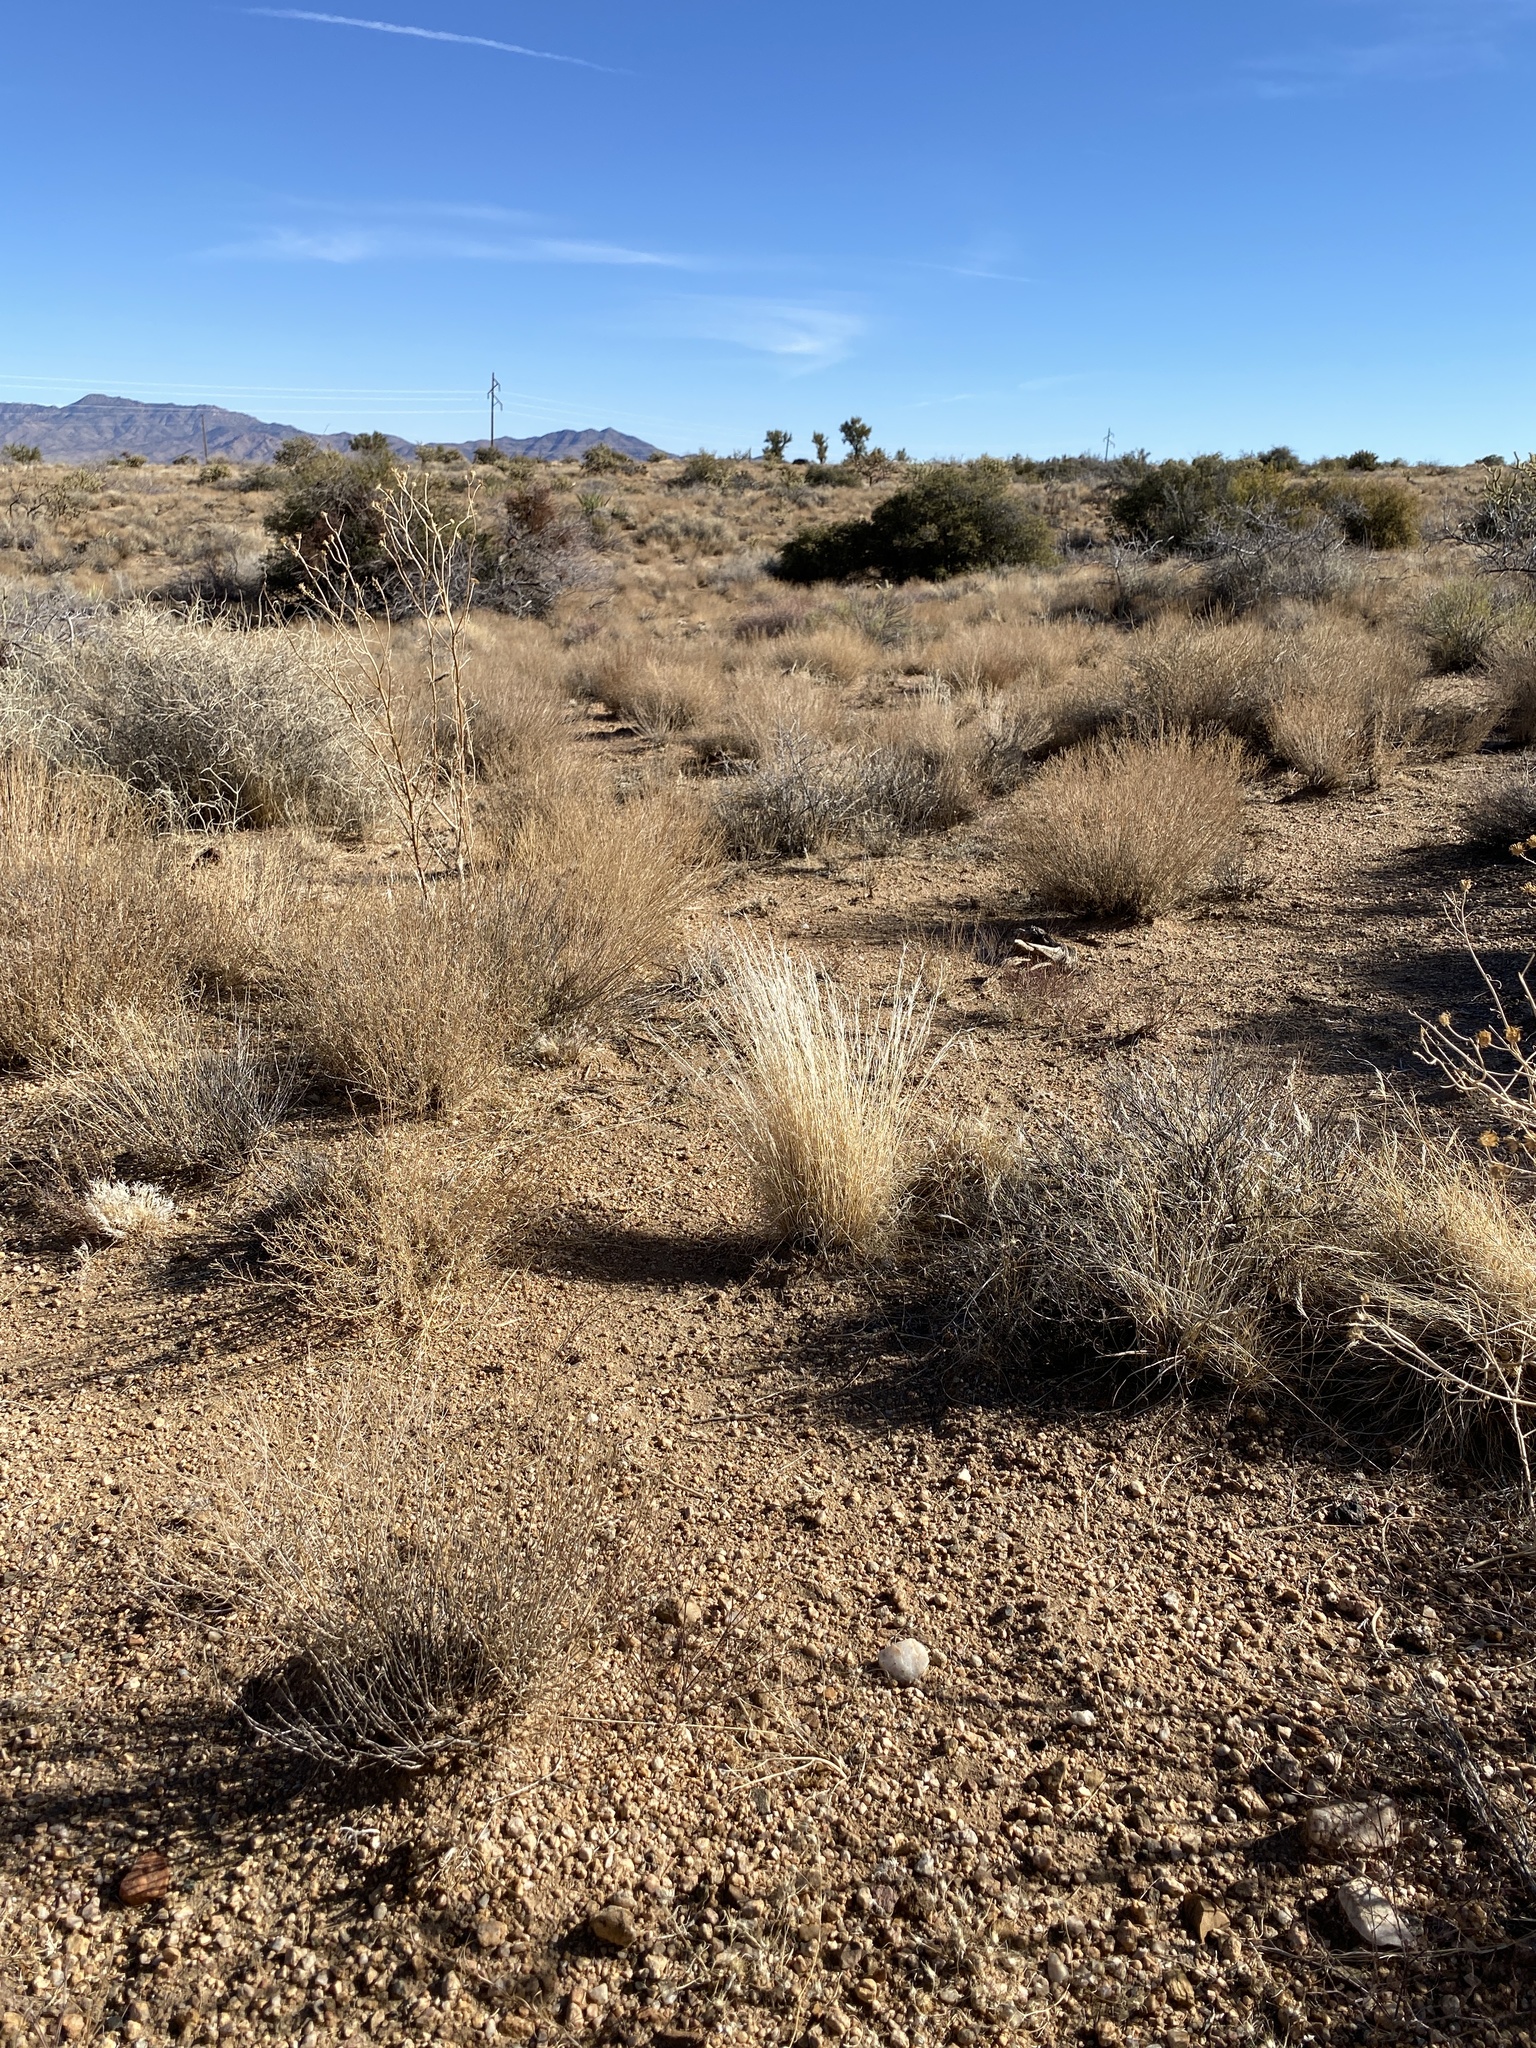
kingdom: Plantae
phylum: Tracheophyta
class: Liliopsida
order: Poales
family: Poaceae
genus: Pappostipa
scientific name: Pappostipa speciosa
